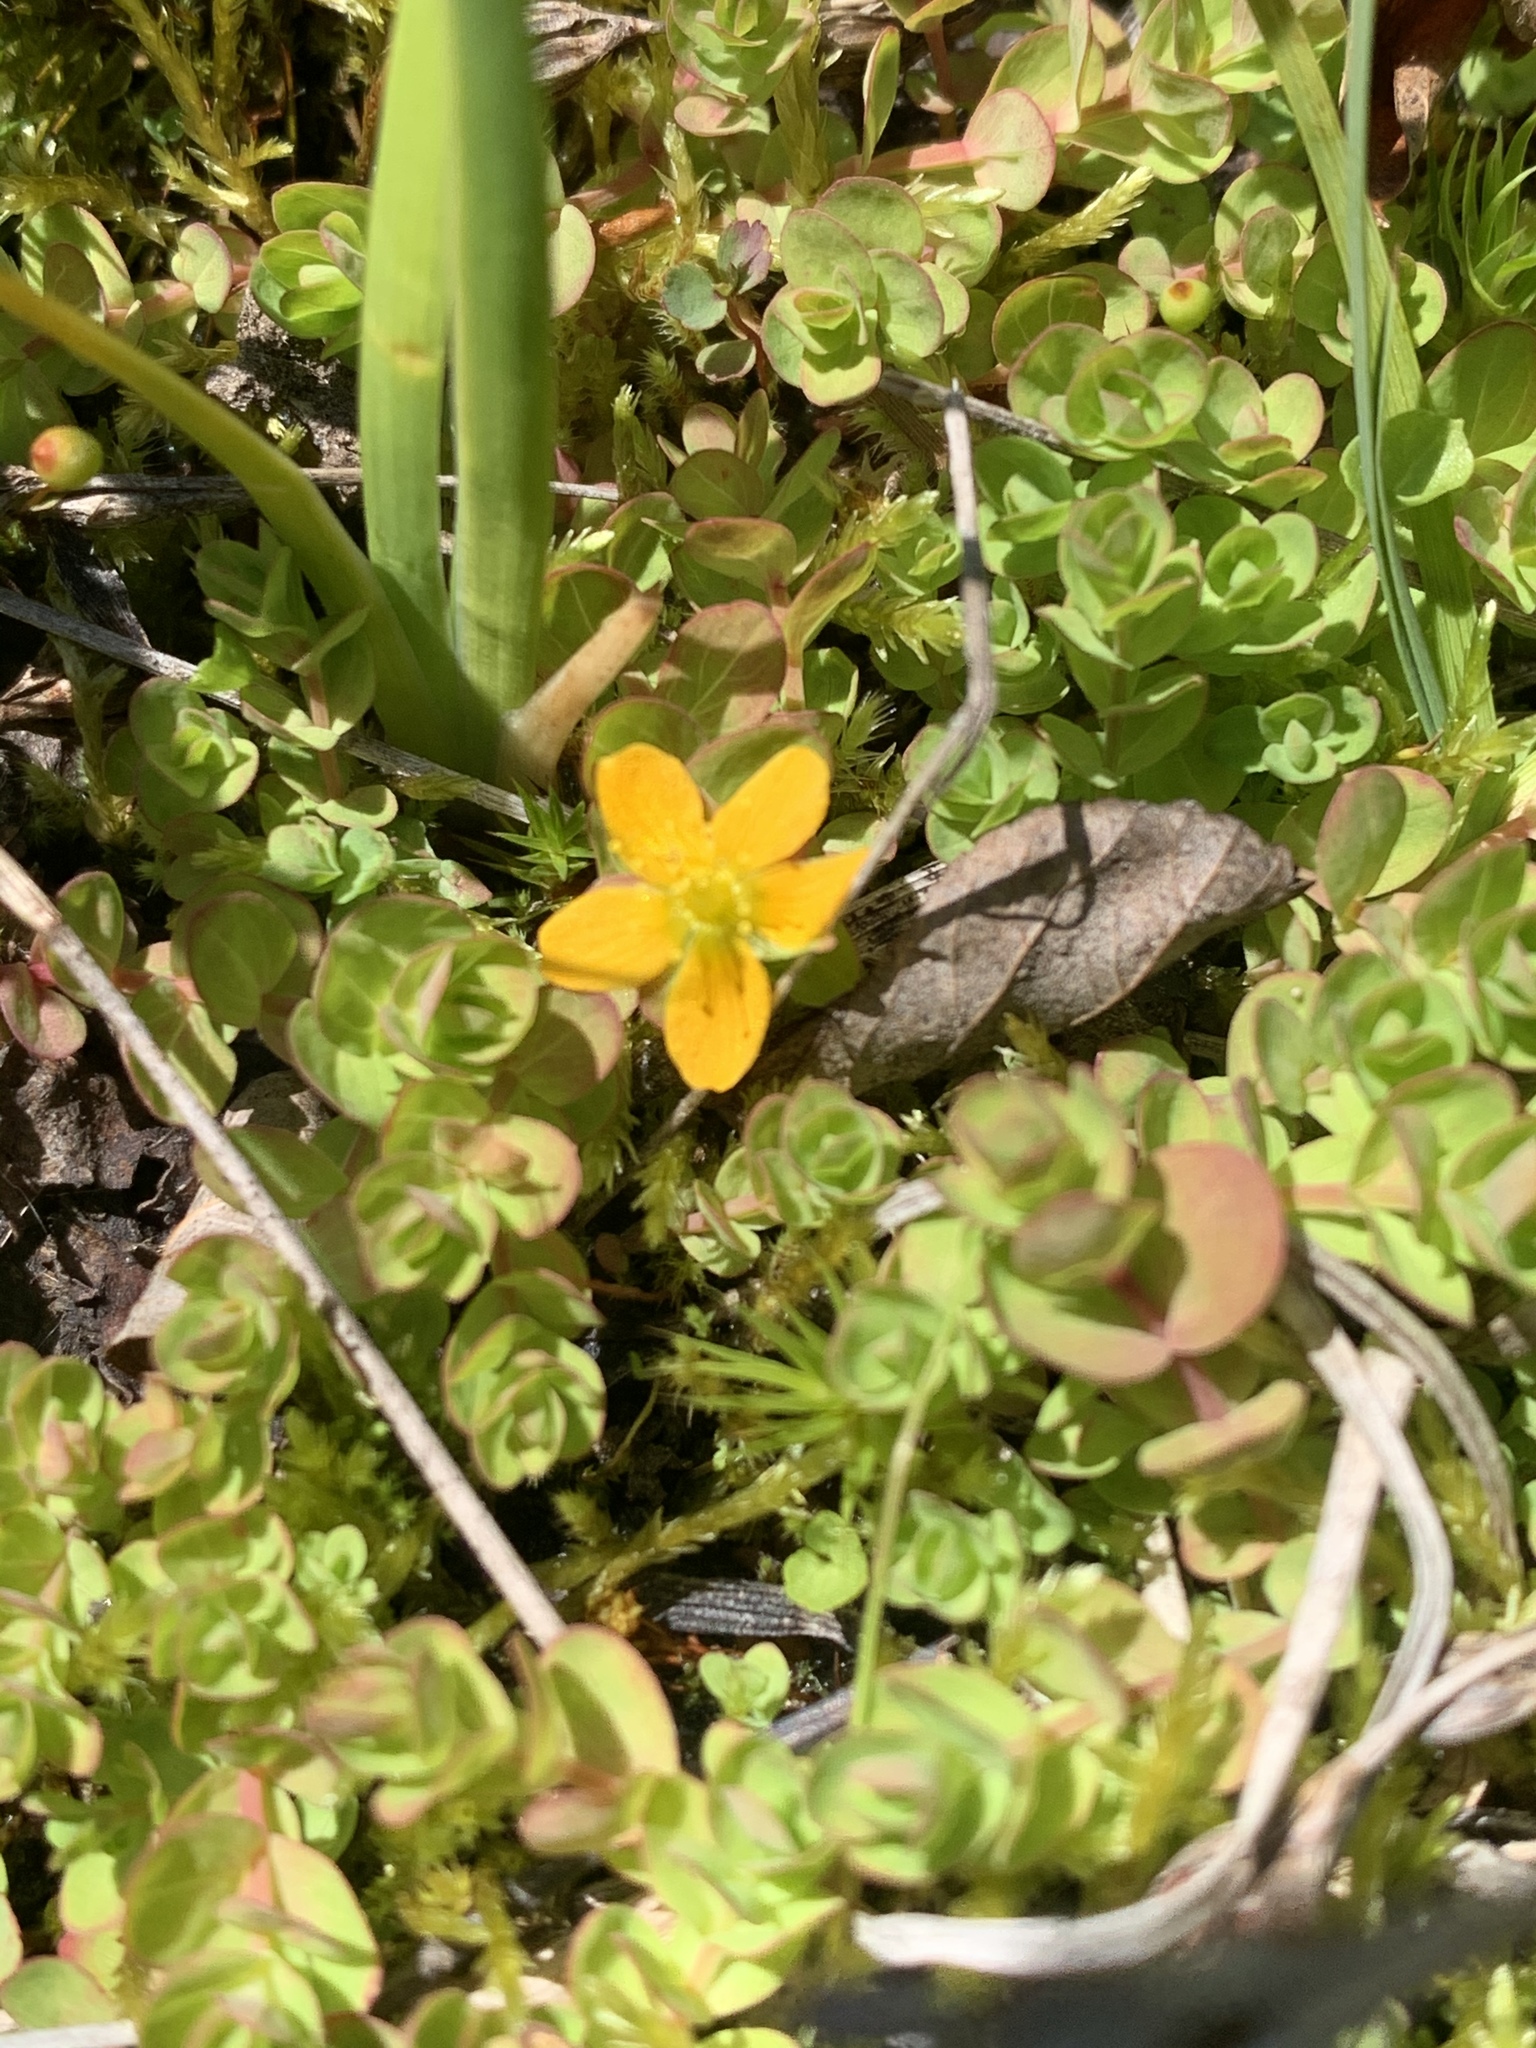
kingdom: Plantae
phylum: Tracheophyta
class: Magnoliopsida
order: Malpighiales
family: Hypericaceae
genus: Hypericum
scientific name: Hypericum anagalloides
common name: Bog st. john's-wort
